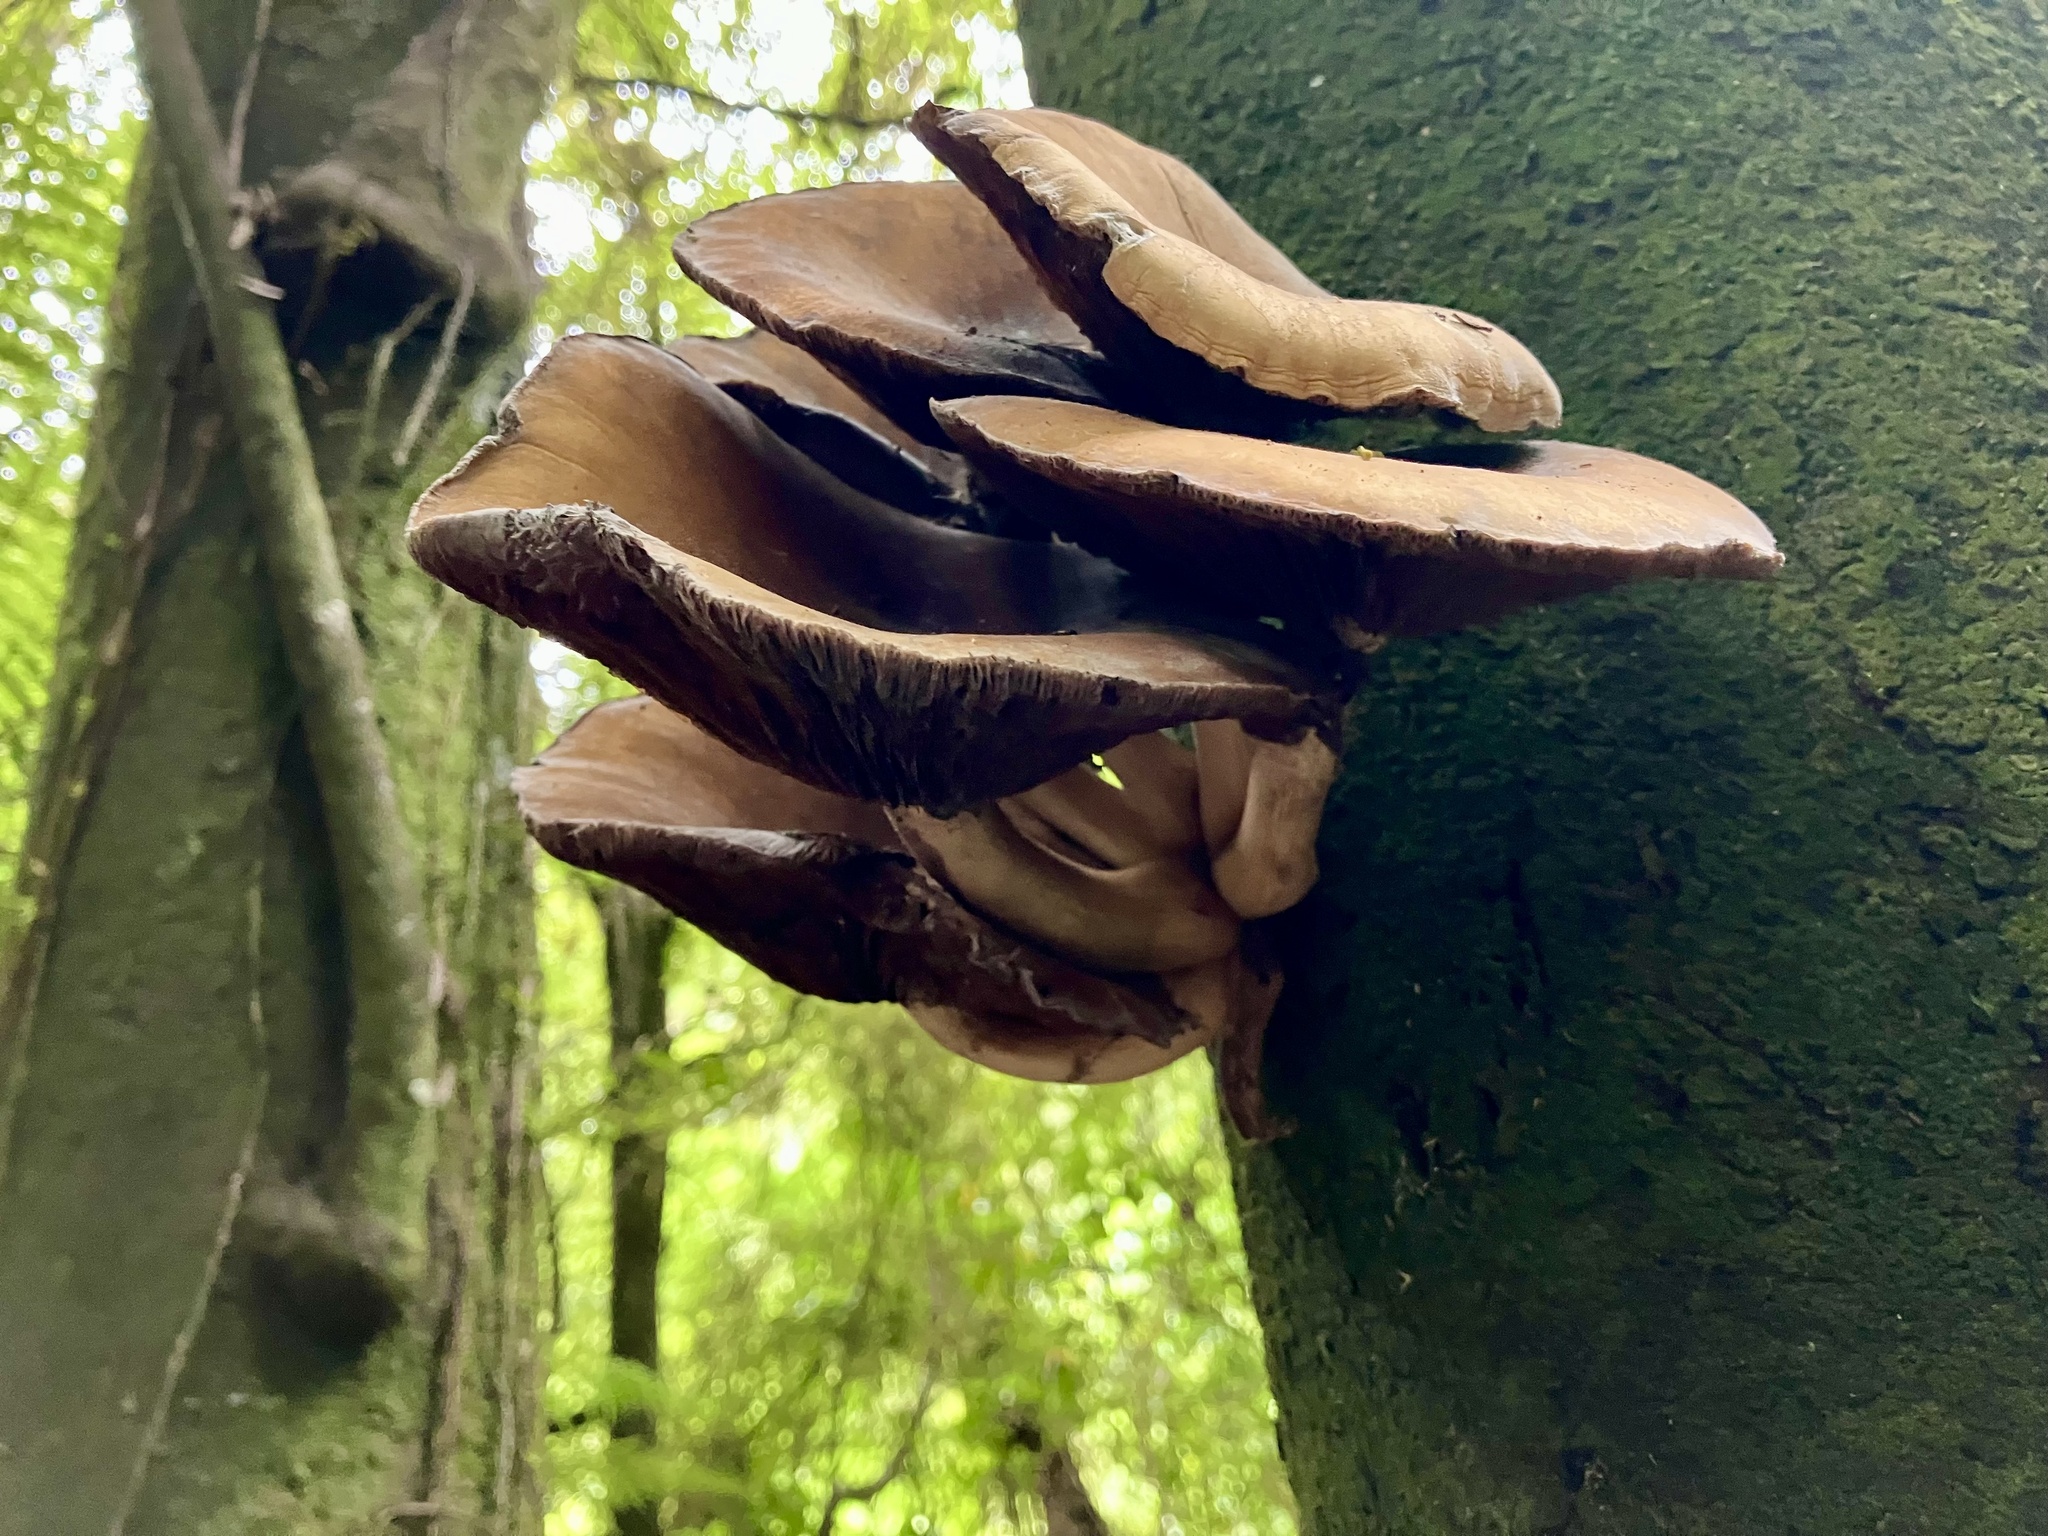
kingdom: Fungi
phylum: Basidiomycota
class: Agaricomycetes
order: Agaricales
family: Tubariaceae
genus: Cyclocybe
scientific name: Cyclocybe parasitica
